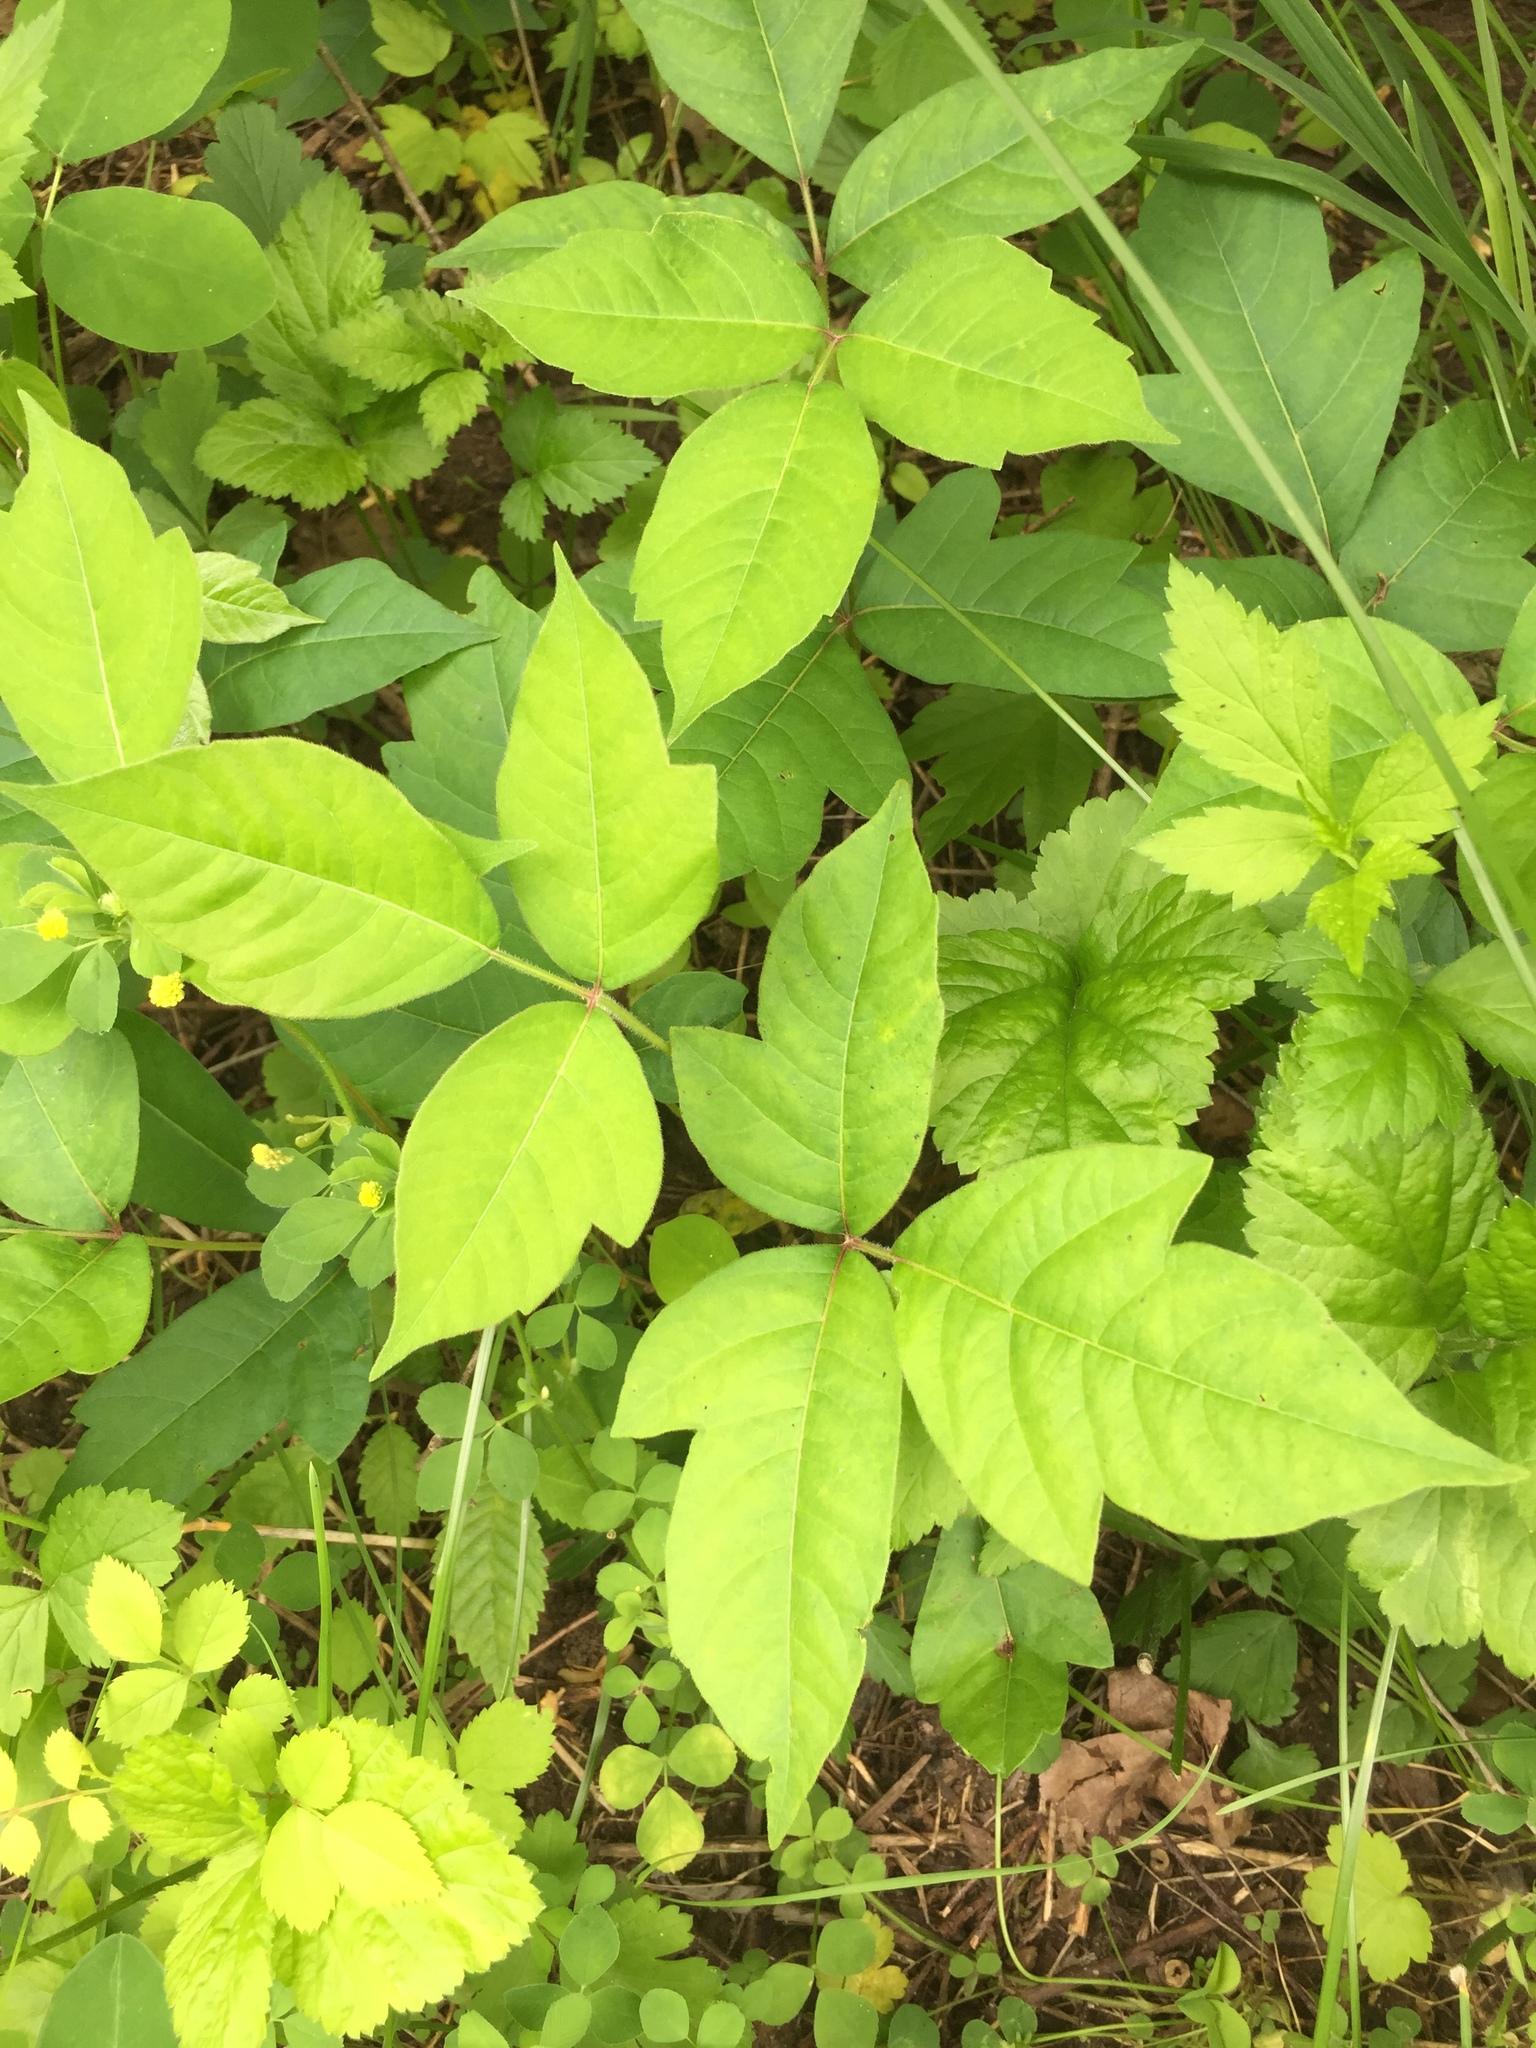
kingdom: Plantae
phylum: Tracheophyta
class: Magnoliopsida
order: Sapindales
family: Anacardiaceae
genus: Toxicodendron
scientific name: Toxicodendron radicans
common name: Poison ivy
